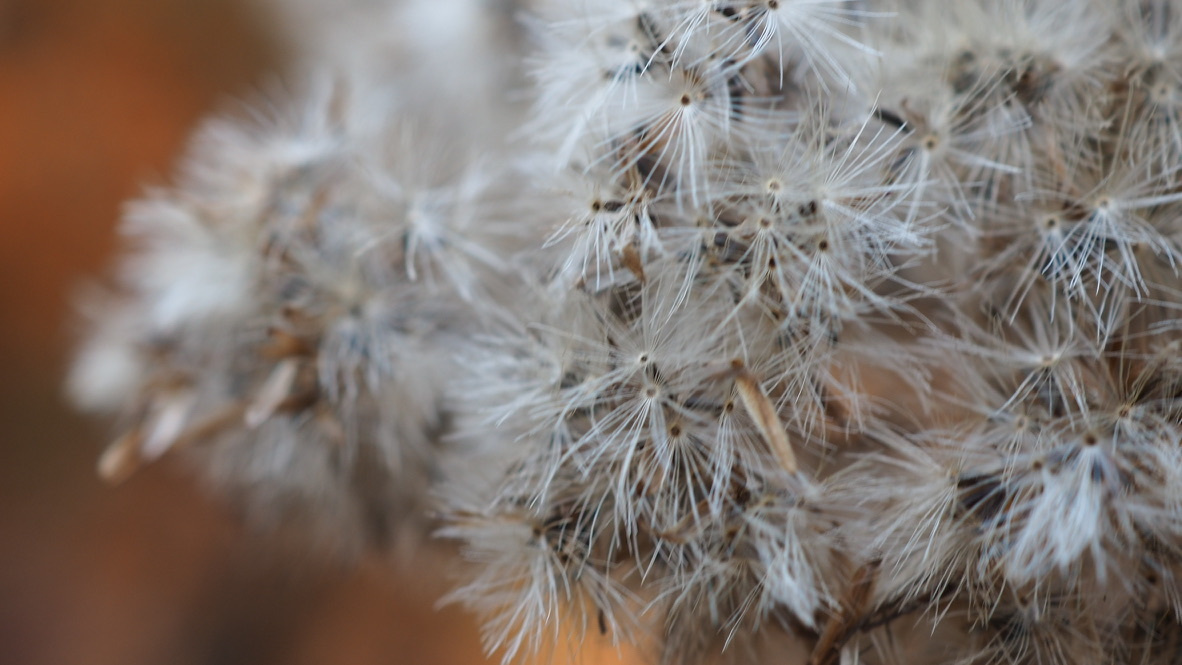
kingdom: Plantae
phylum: Tracheophyta
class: Magnoliopsida
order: Asterales
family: Asteraceae
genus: Eupatorium
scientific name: Eupatorium cannabinum
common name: Hemp-agrimony
